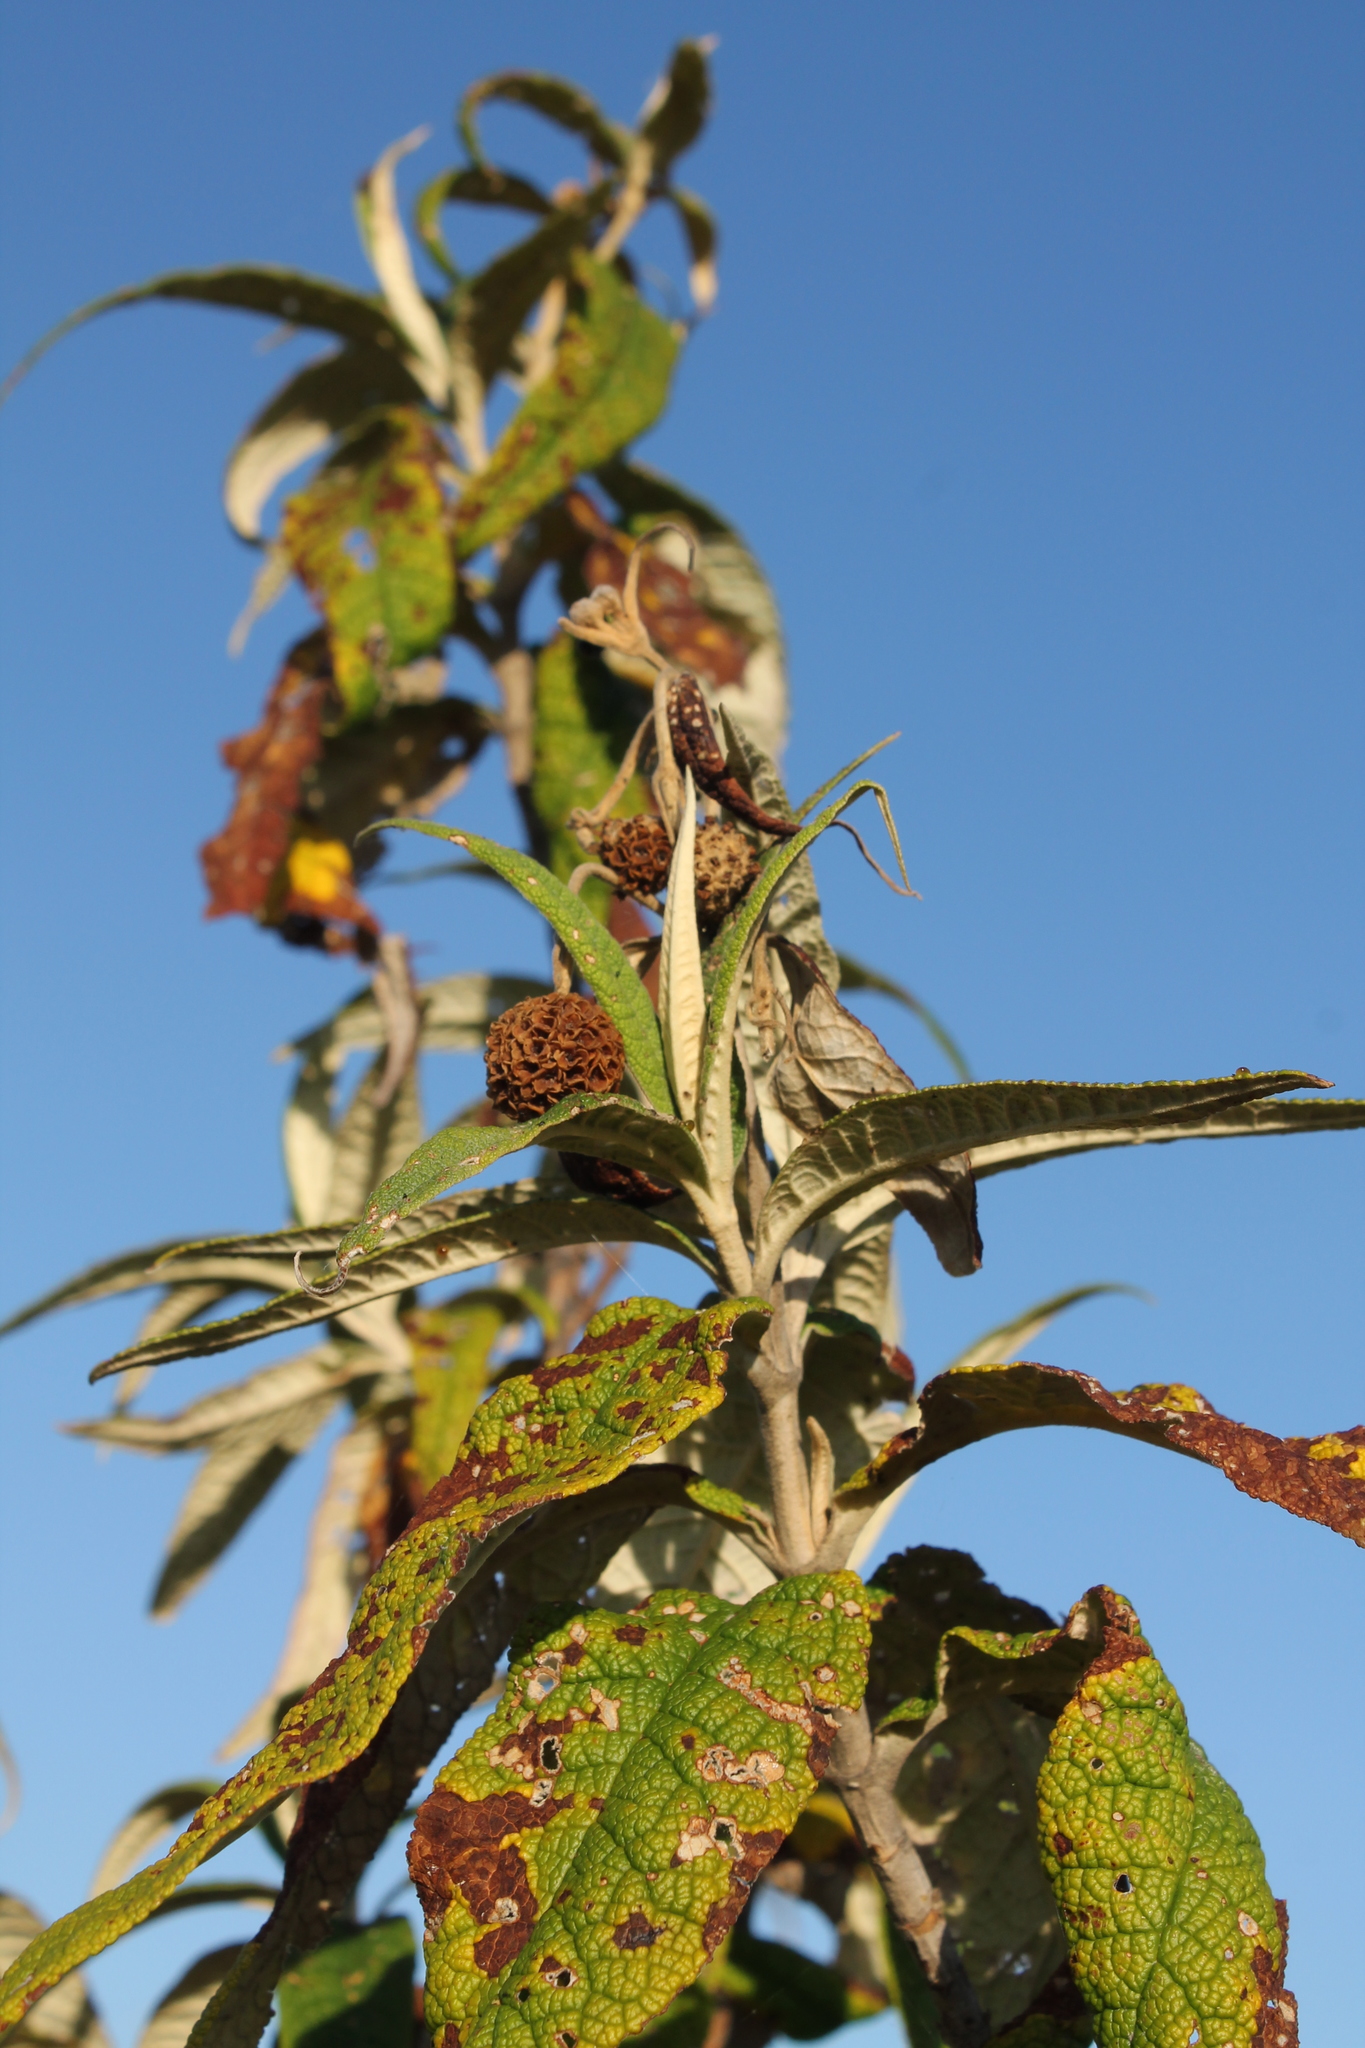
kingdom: Plantae
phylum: Tracheophyta
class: Magnoliopsida
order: Lamiales
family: Scrophulariaceae
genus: Buddleja
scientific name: Buddleja globosa
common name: Orange-ball-tree
